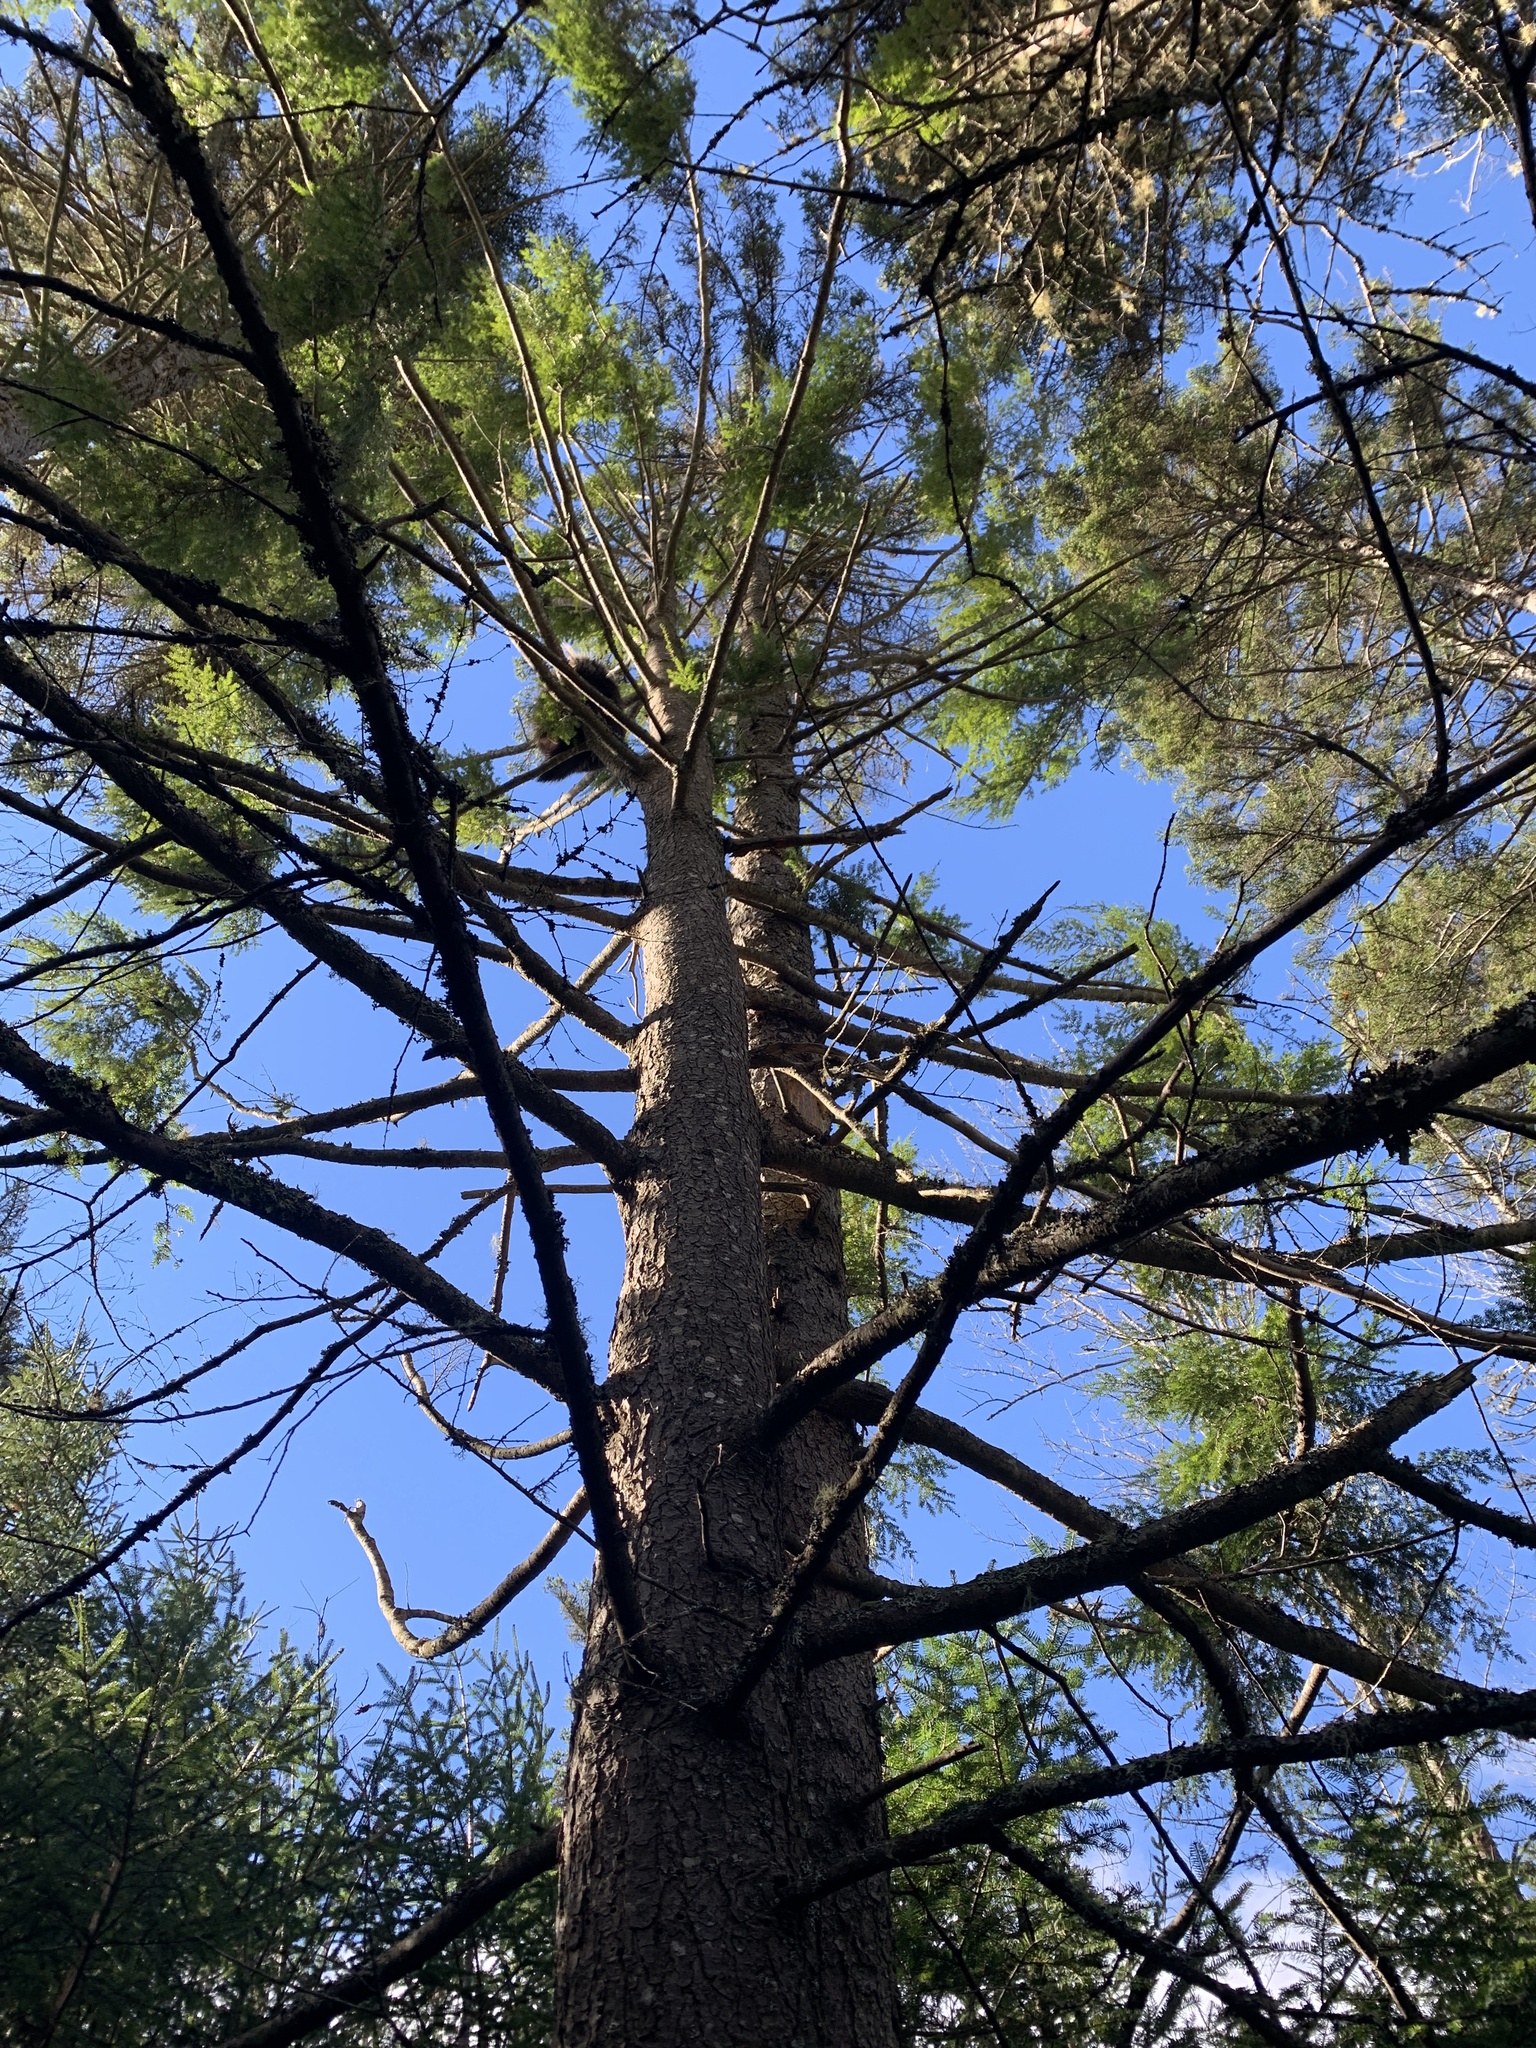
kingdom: Plantae
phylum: Tracheophyta
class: Pinopsida
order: Pinales
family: Pinaceae
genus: Tsuga
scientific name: Tsuga canadensis
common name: Eastern hemlock
